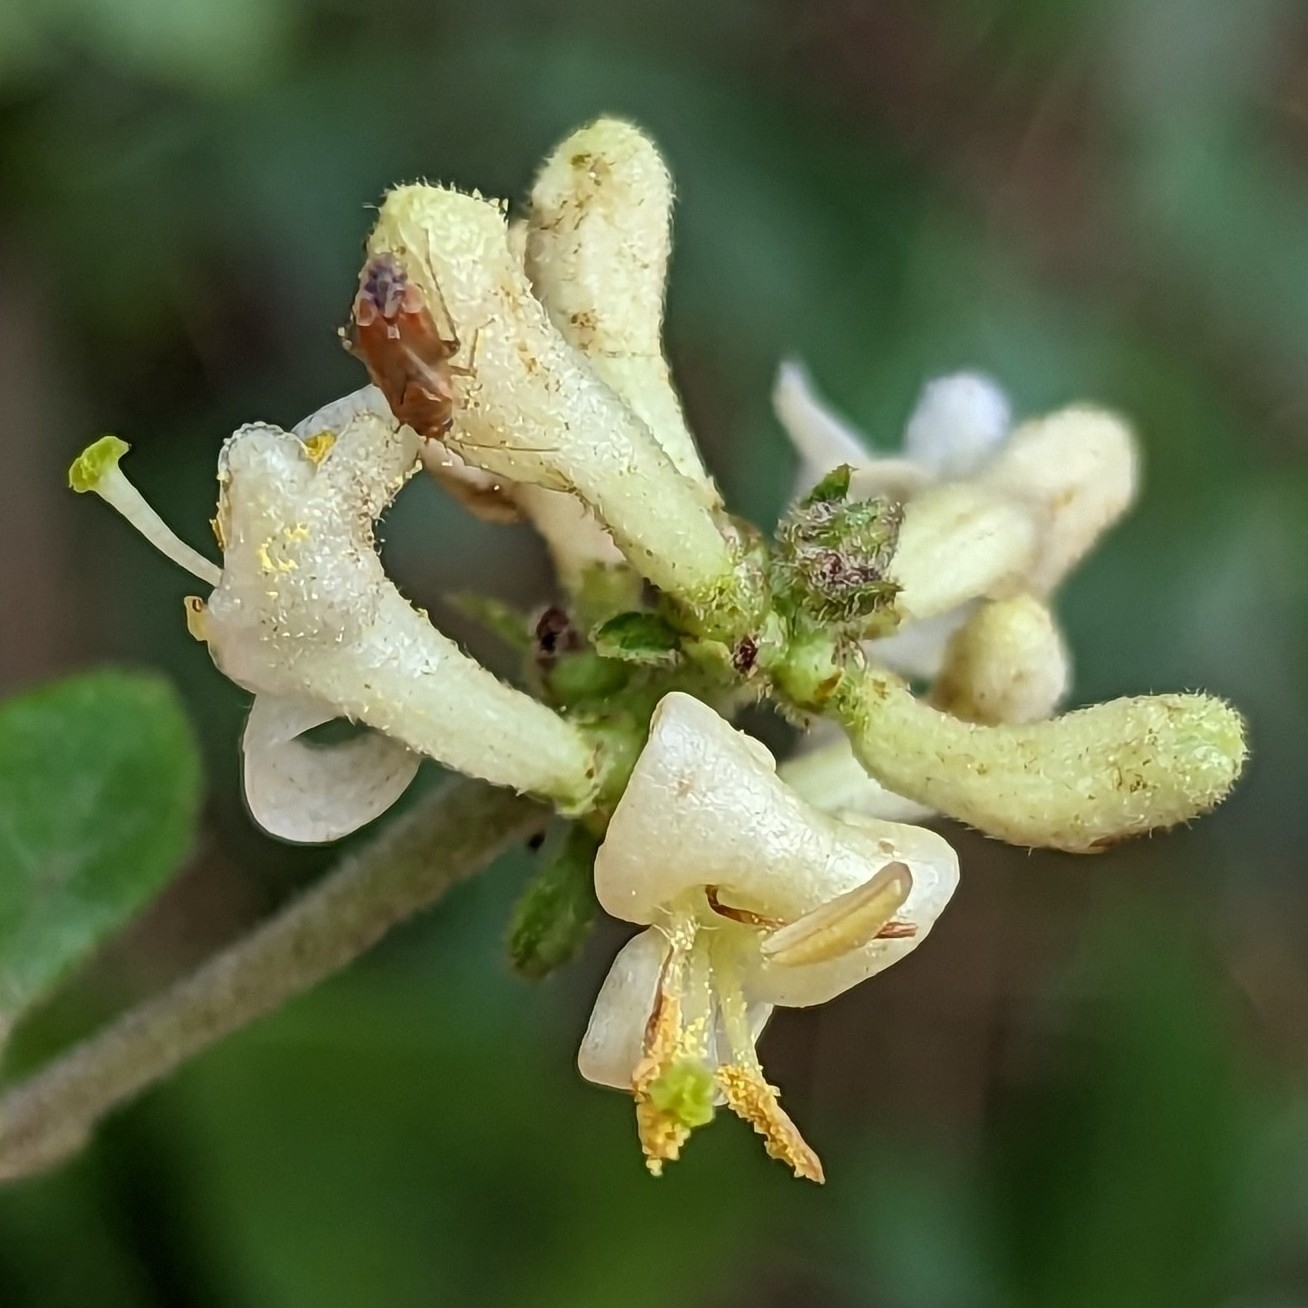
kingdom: Plantae
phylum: Tracheophyta
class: Magnoliopsida
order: Dipsacales
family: Caprifoliaceae
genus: Lonicera
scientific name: Lonicera subspicata
